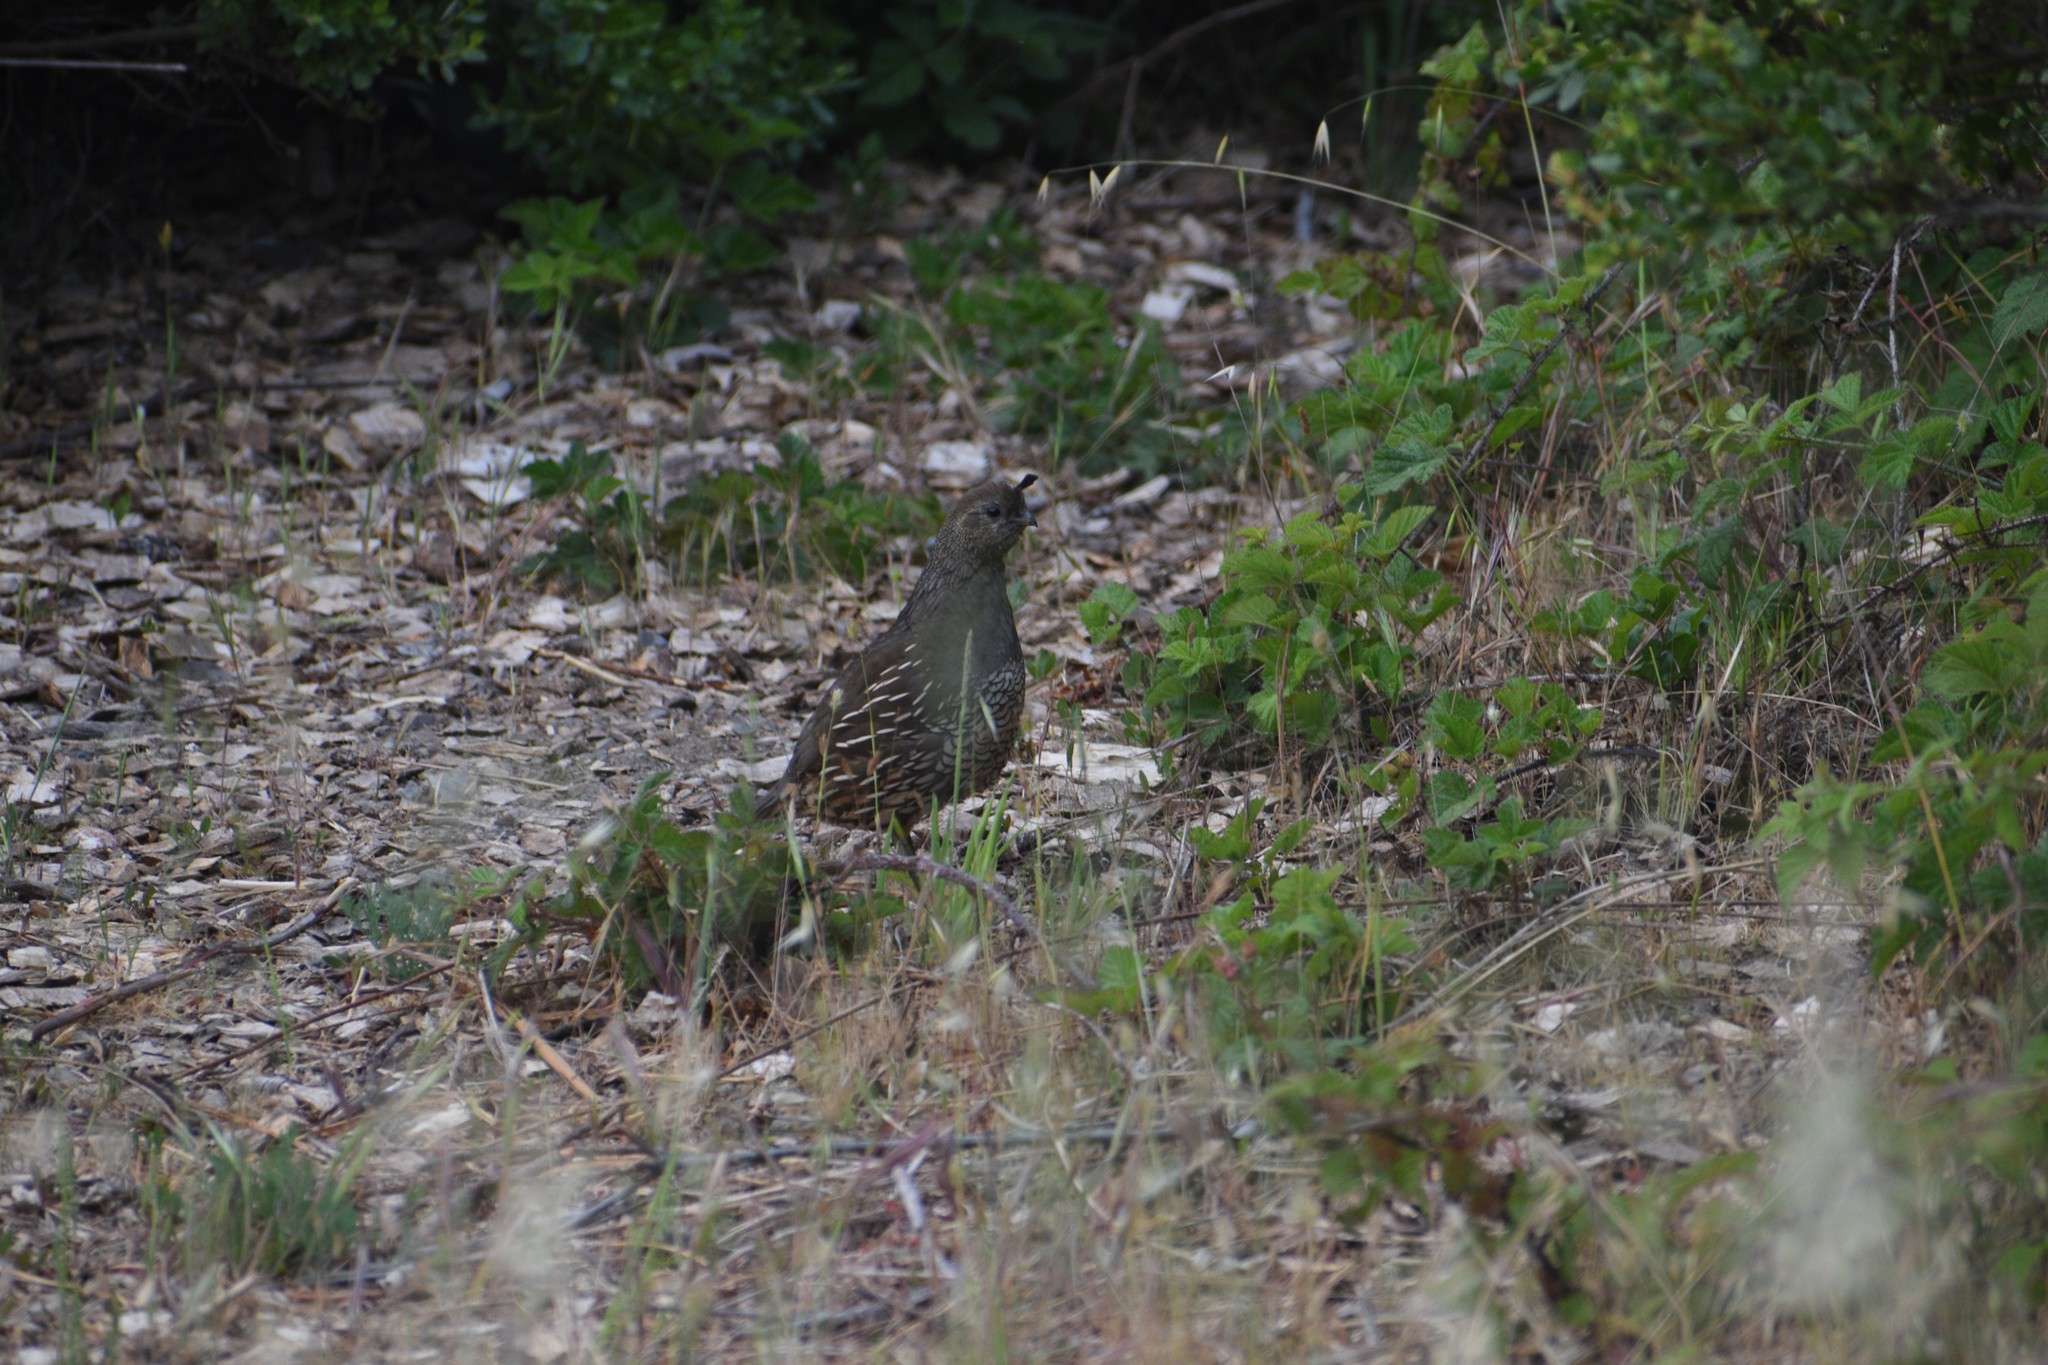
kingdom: Animalia
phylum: Chordata
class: Aves
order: Galliformes
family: Odontophoridae
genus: Callipepla
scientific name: Callipepla californica
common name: California quail
